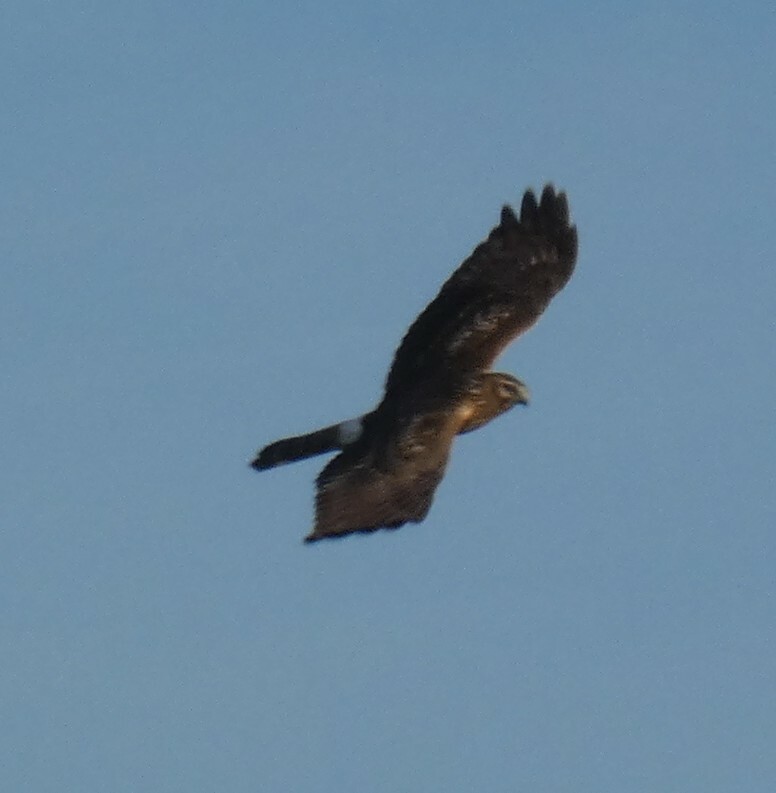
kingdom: Animalia
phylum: Chordata
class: Aves
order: Accipitriformes
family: Accipitridae
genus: Circus
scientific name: Circus cyaneus
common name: Hen harrier
